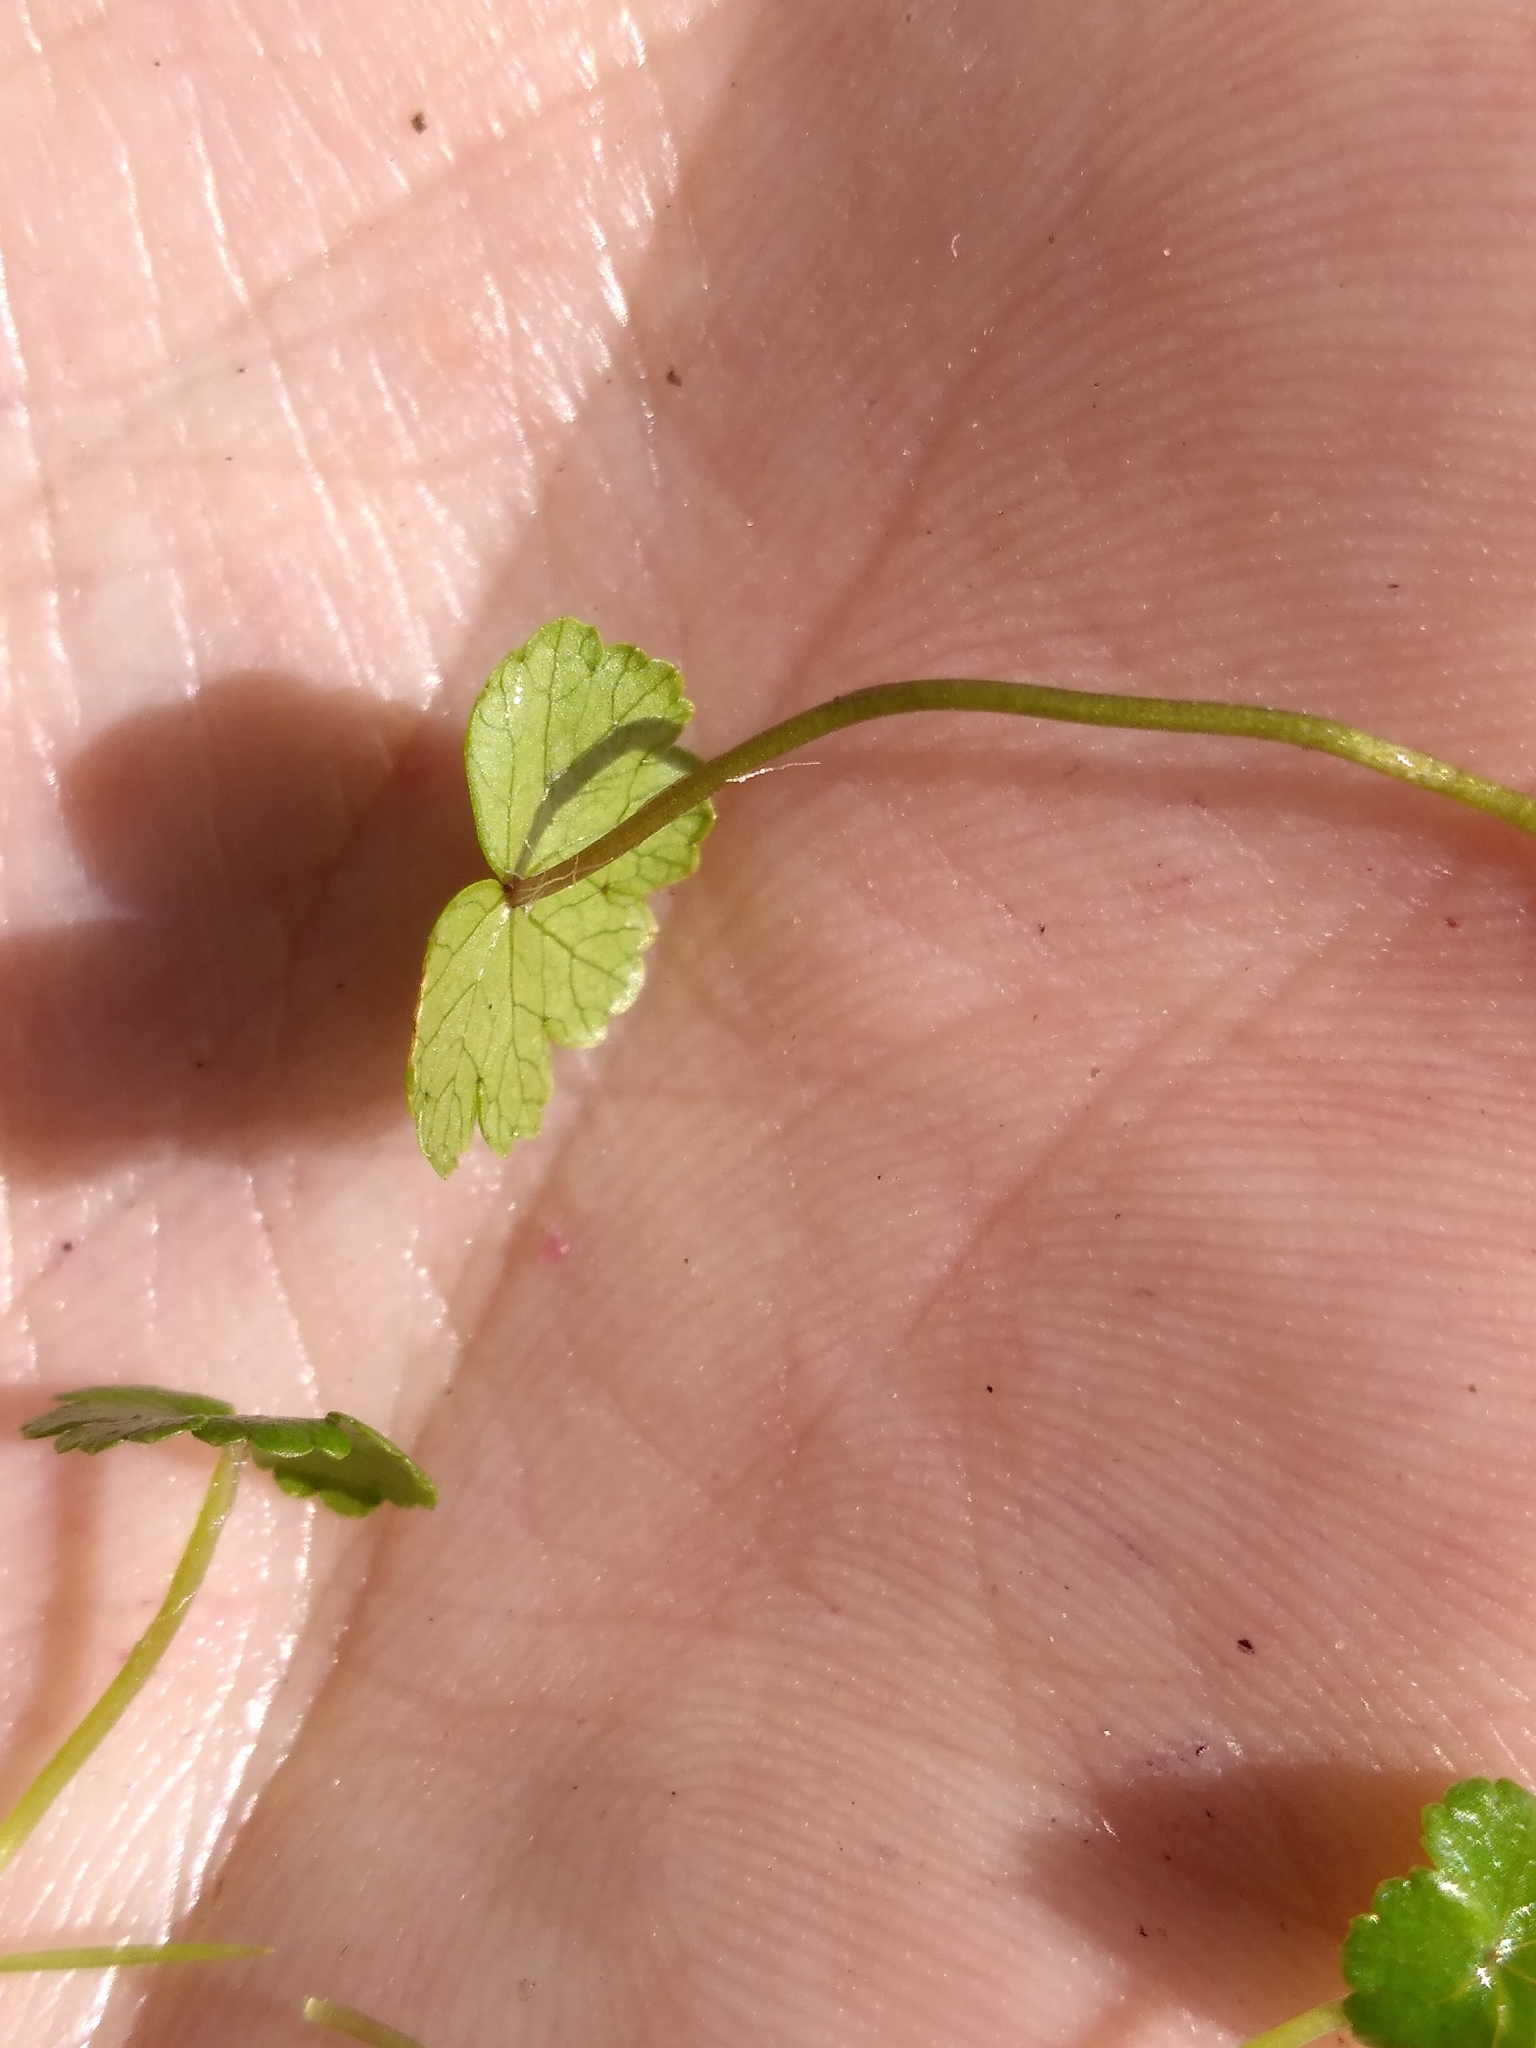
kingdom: Plantae
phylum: Tracheophyta
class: Magnoliopsida
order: Apiales
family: Araliaceae
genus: Hydrocotyle
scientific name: Hydrocotyle novae-zeelandiae
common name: New zealand pennywort
